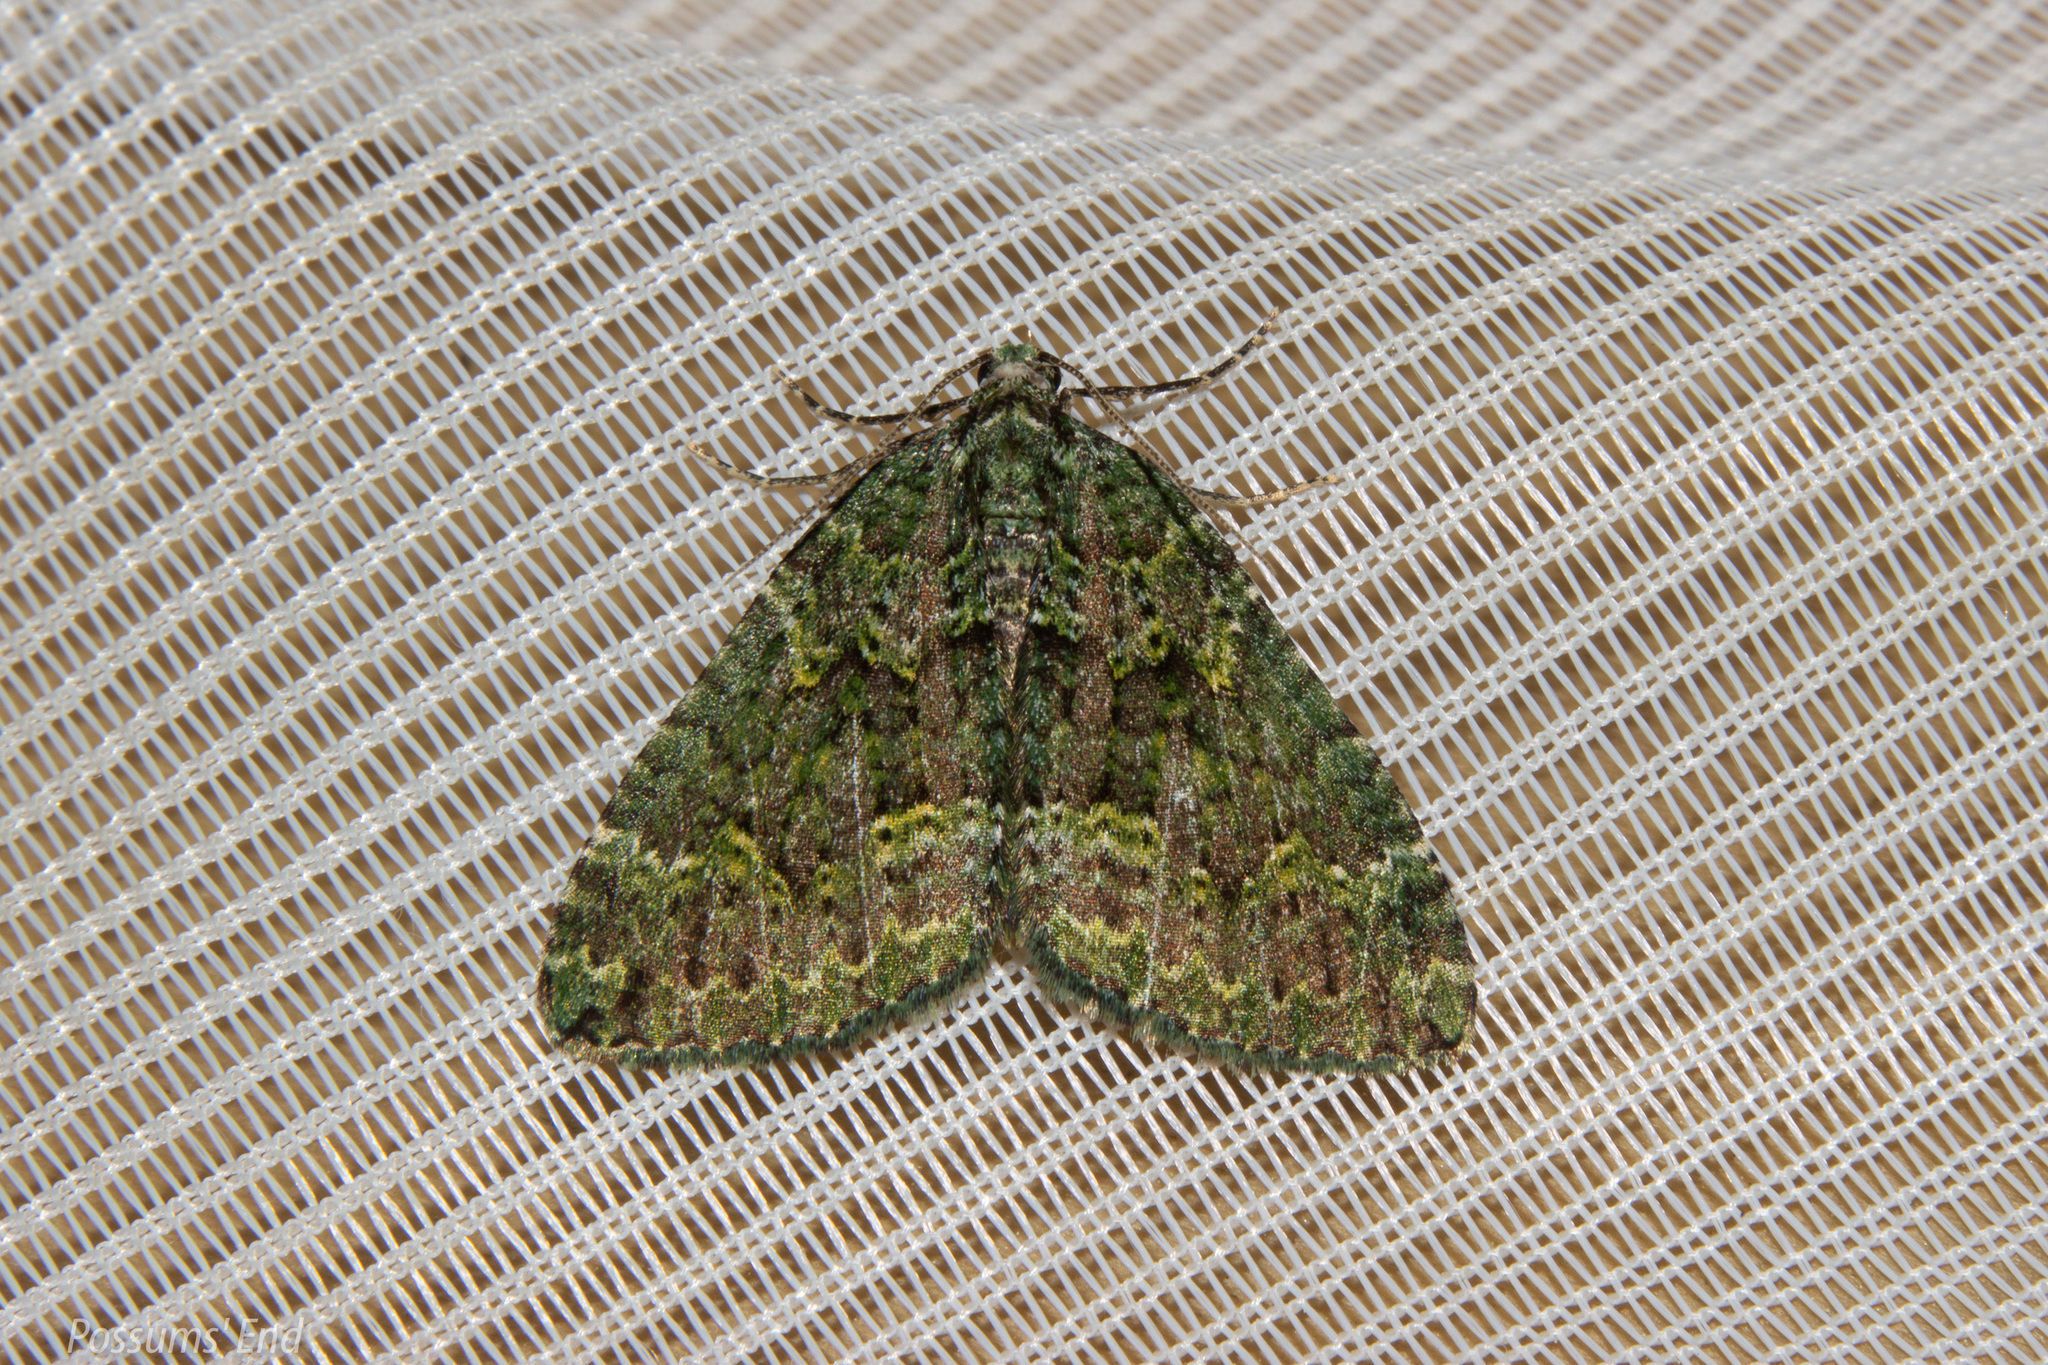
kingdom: Animalia
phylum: Arthropoda
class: Insecta
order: Lepidoptera
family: Geometridae
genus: Austrocidaria
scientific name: Austrocidaria callichlora
